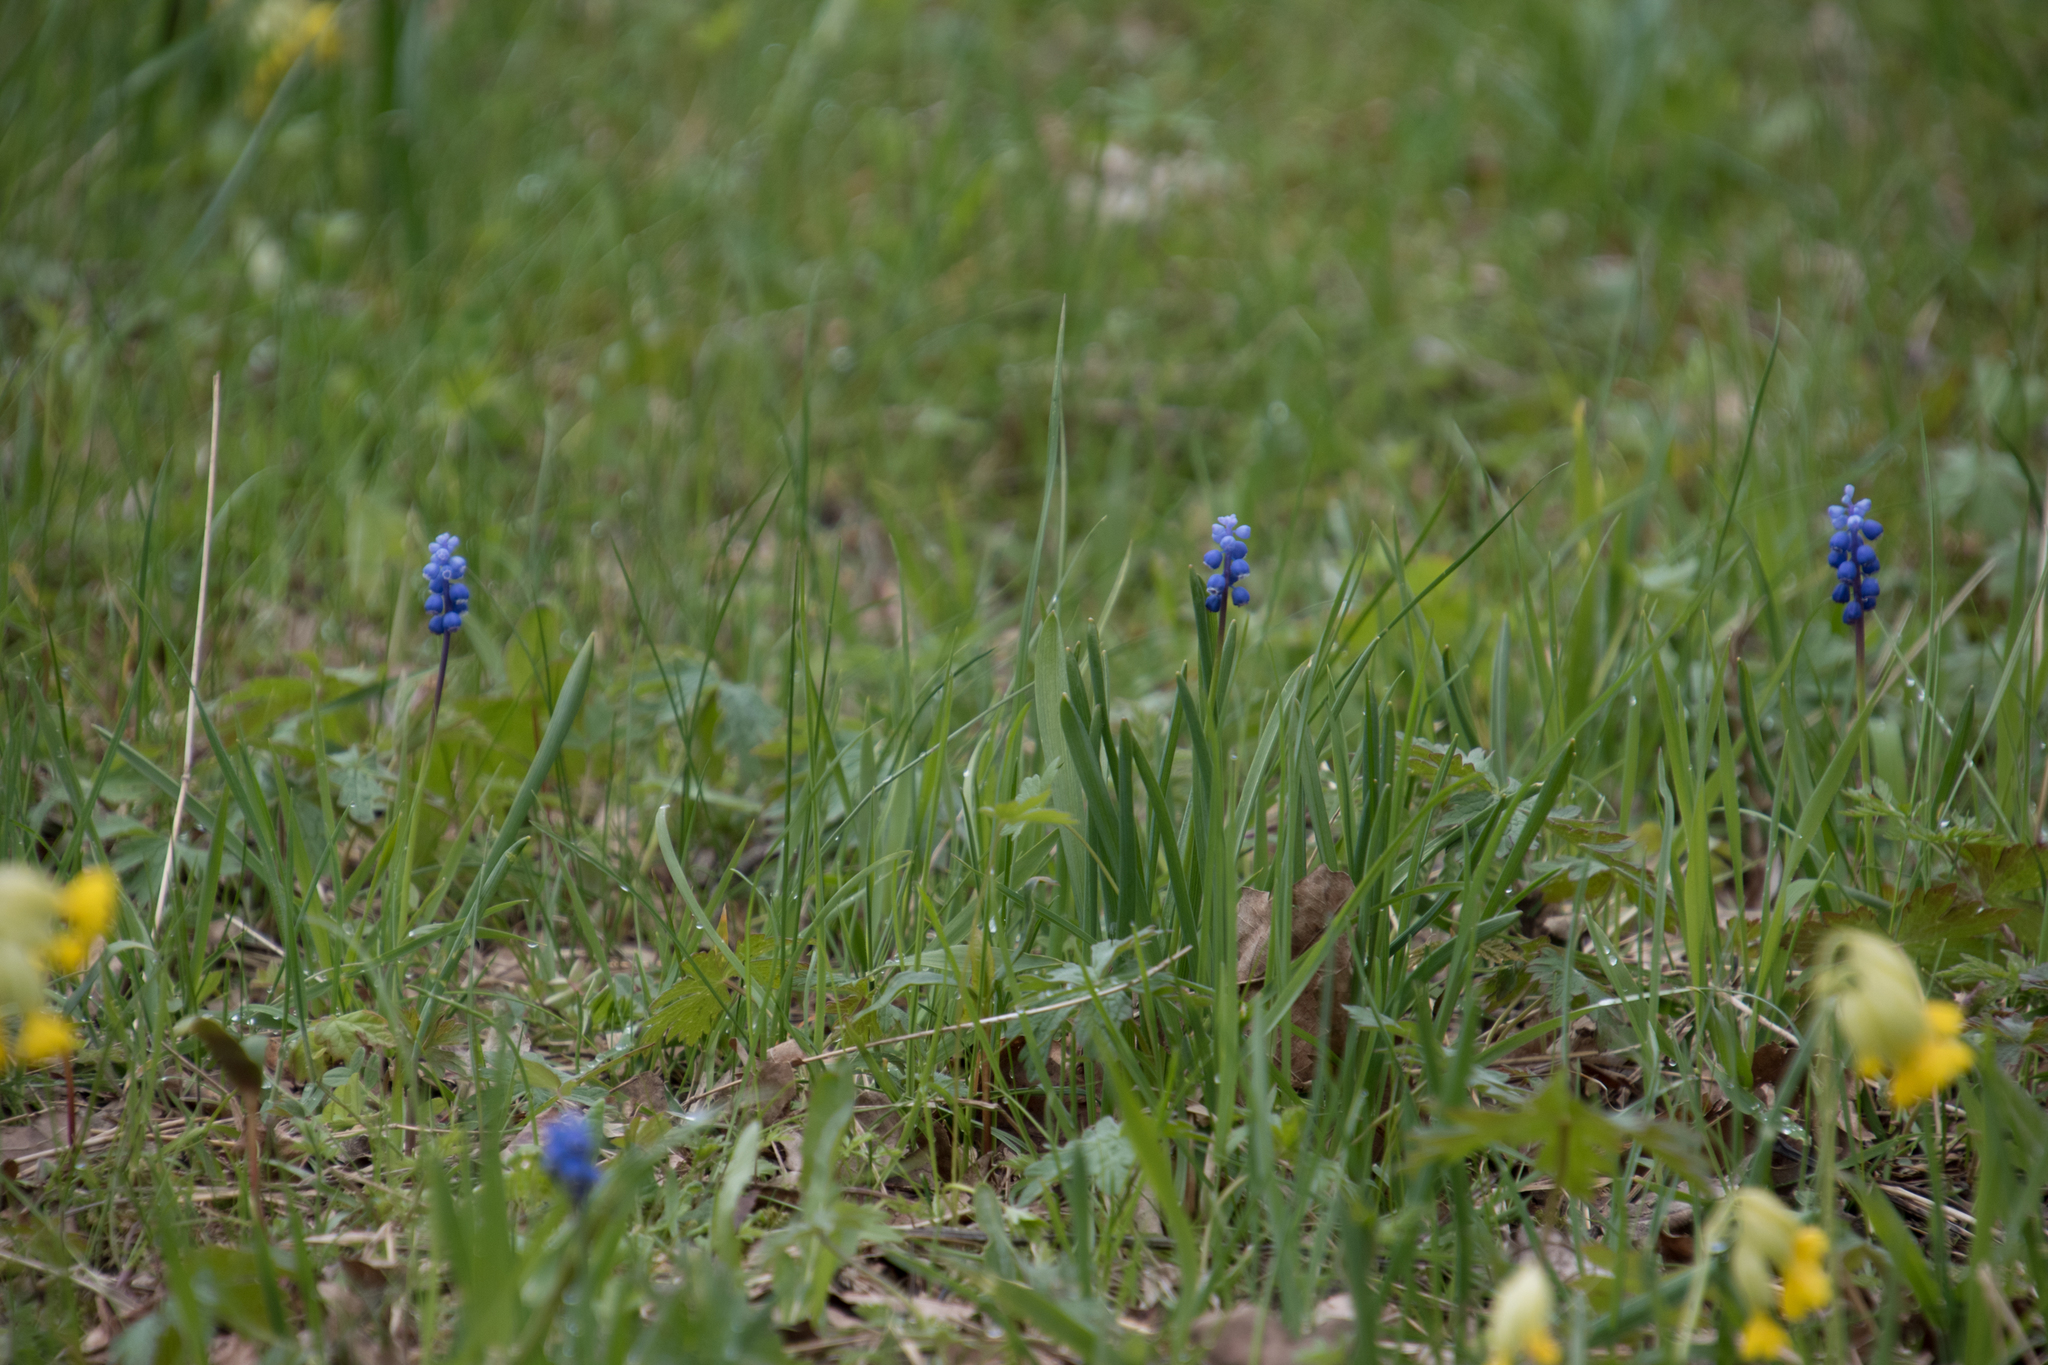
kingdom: Plantae
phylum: Tracheophyta
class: Liliopsida
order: Asparagales
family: Asparagaceae
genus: Muscari
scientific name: Muscari botryoides
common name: Compact grape-hyacinth
